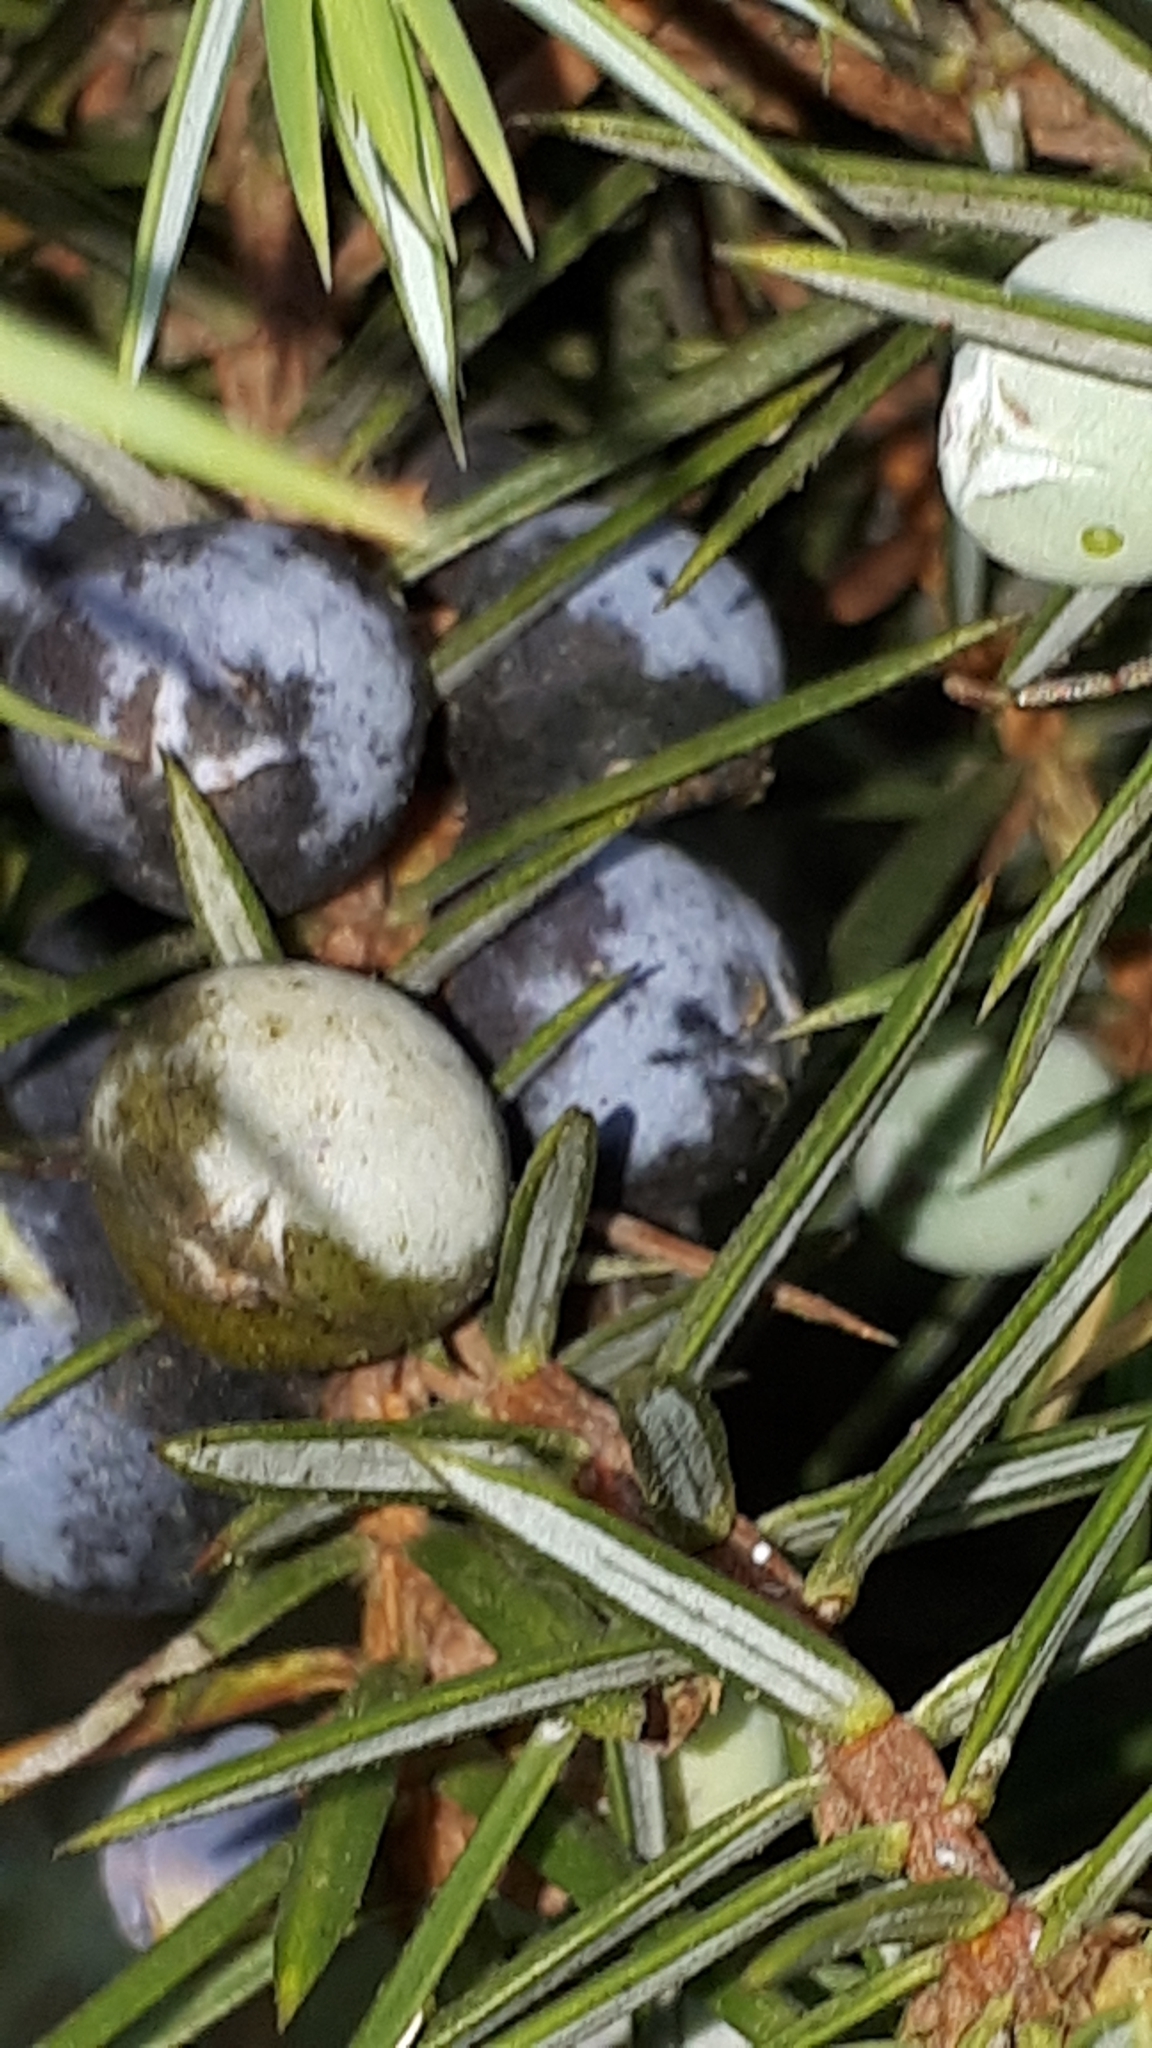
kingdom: Plantae
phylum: Tracheophyta
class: Pinopsida
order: Pinales
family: Cupressaceae
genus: Juniperus
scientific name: Juniperus communis
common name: Common juniper
